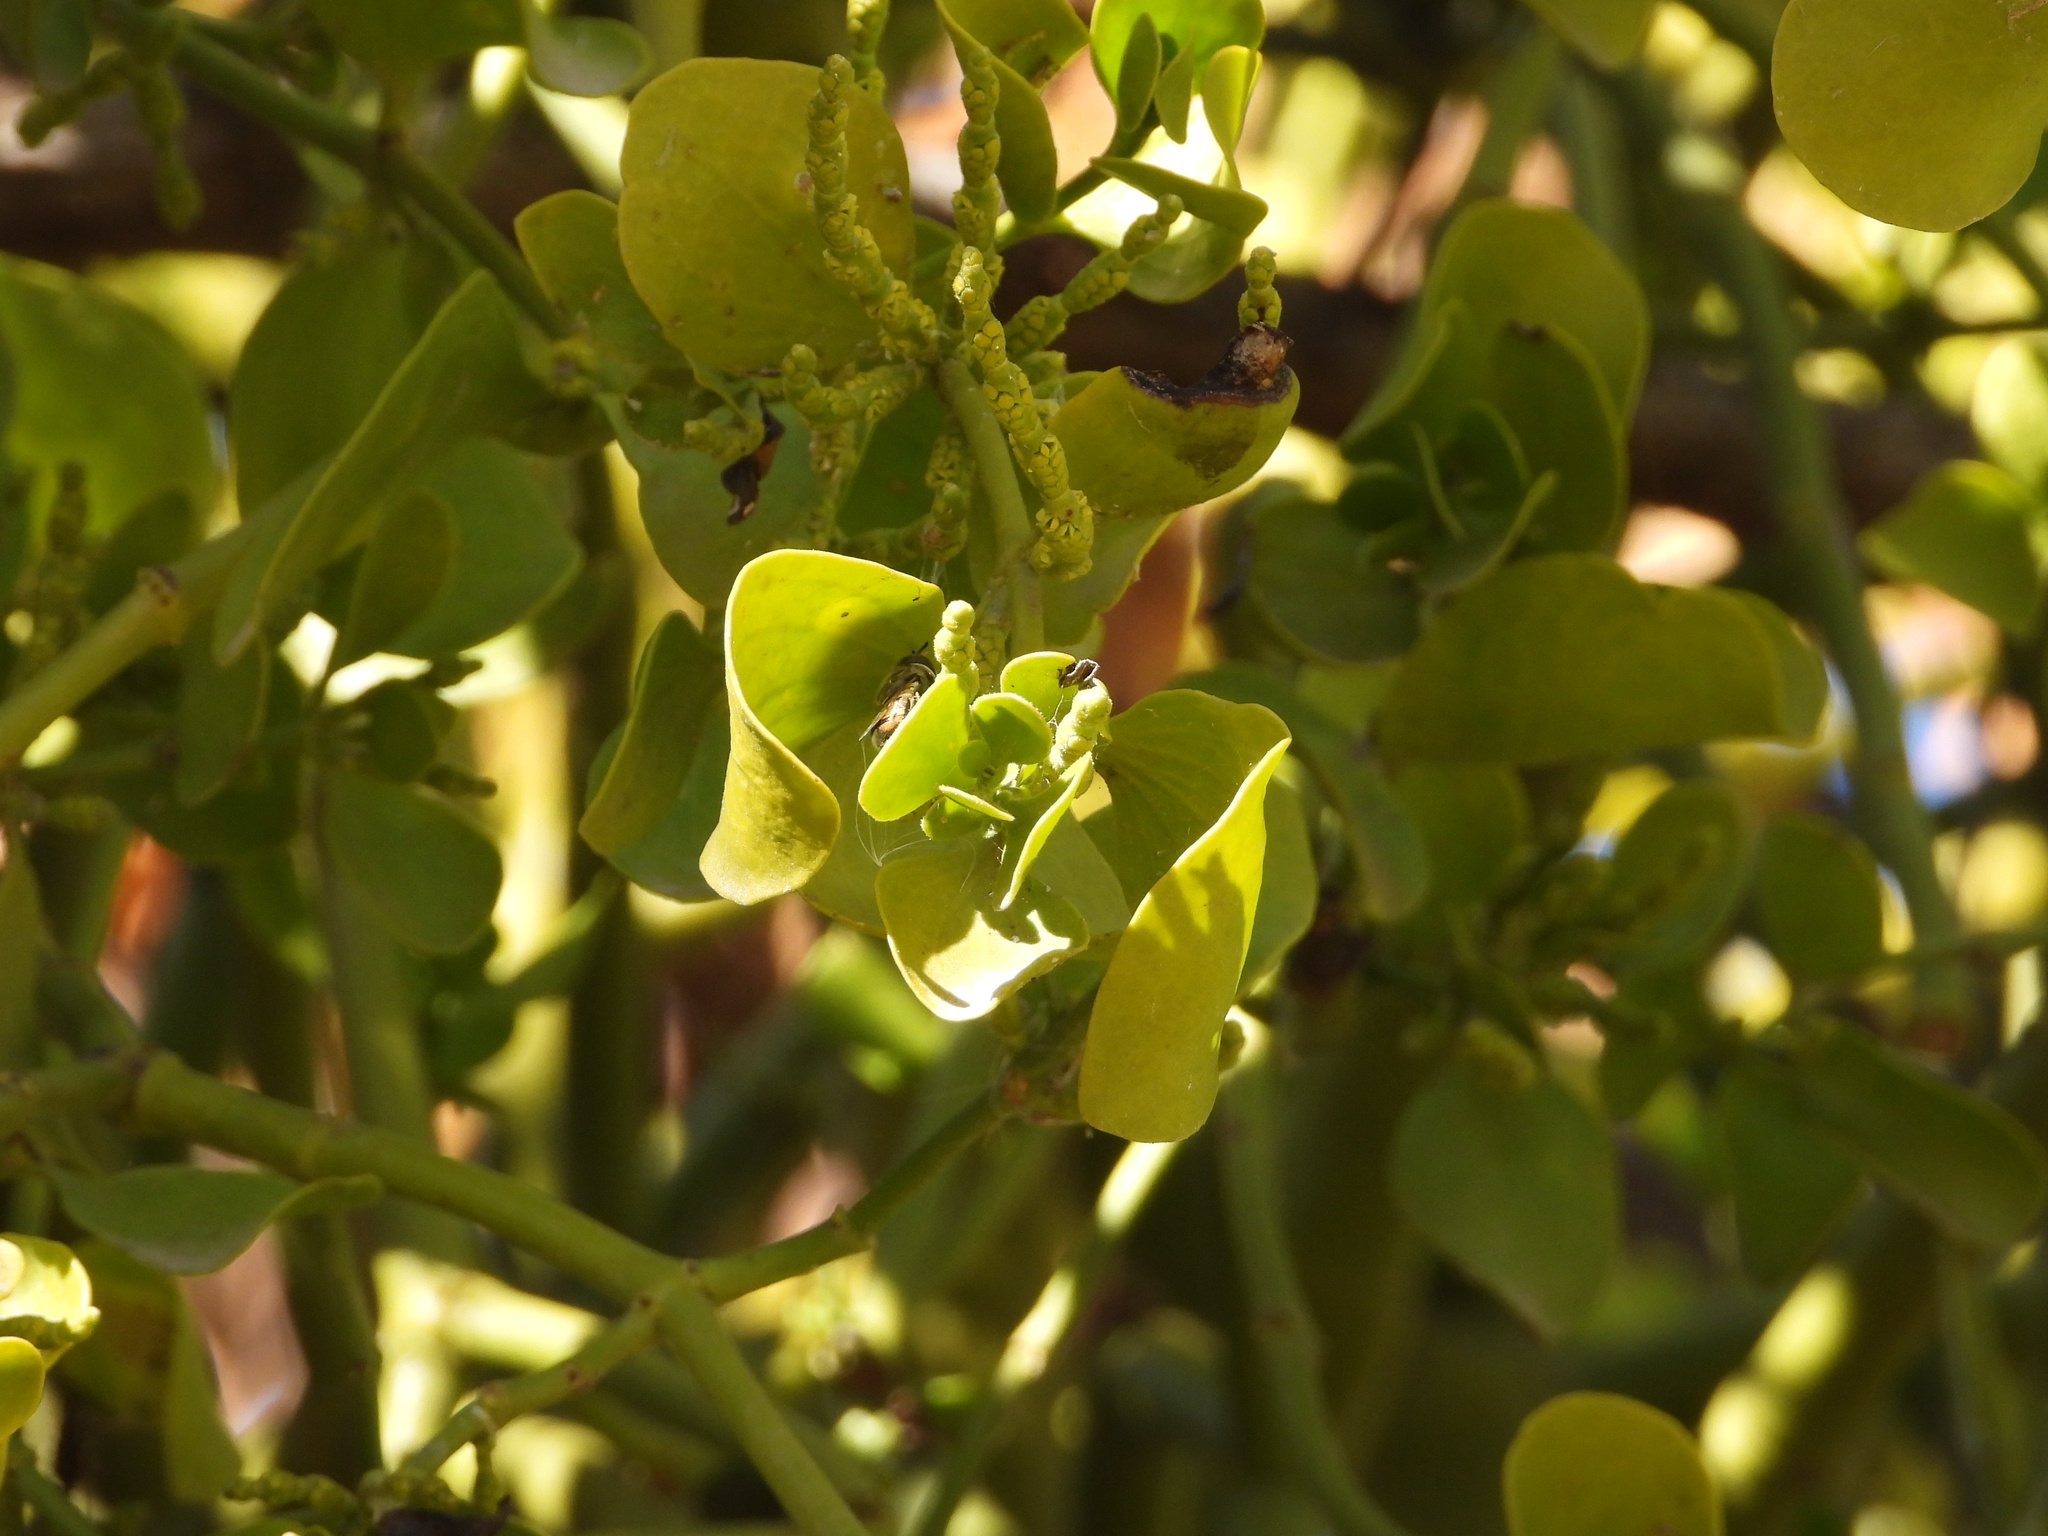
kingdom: Animalia
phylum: Arthropoda
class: Insecta
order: Diptera
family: Syrphidae
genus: Copestylum
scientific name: Copestylum marginatum
